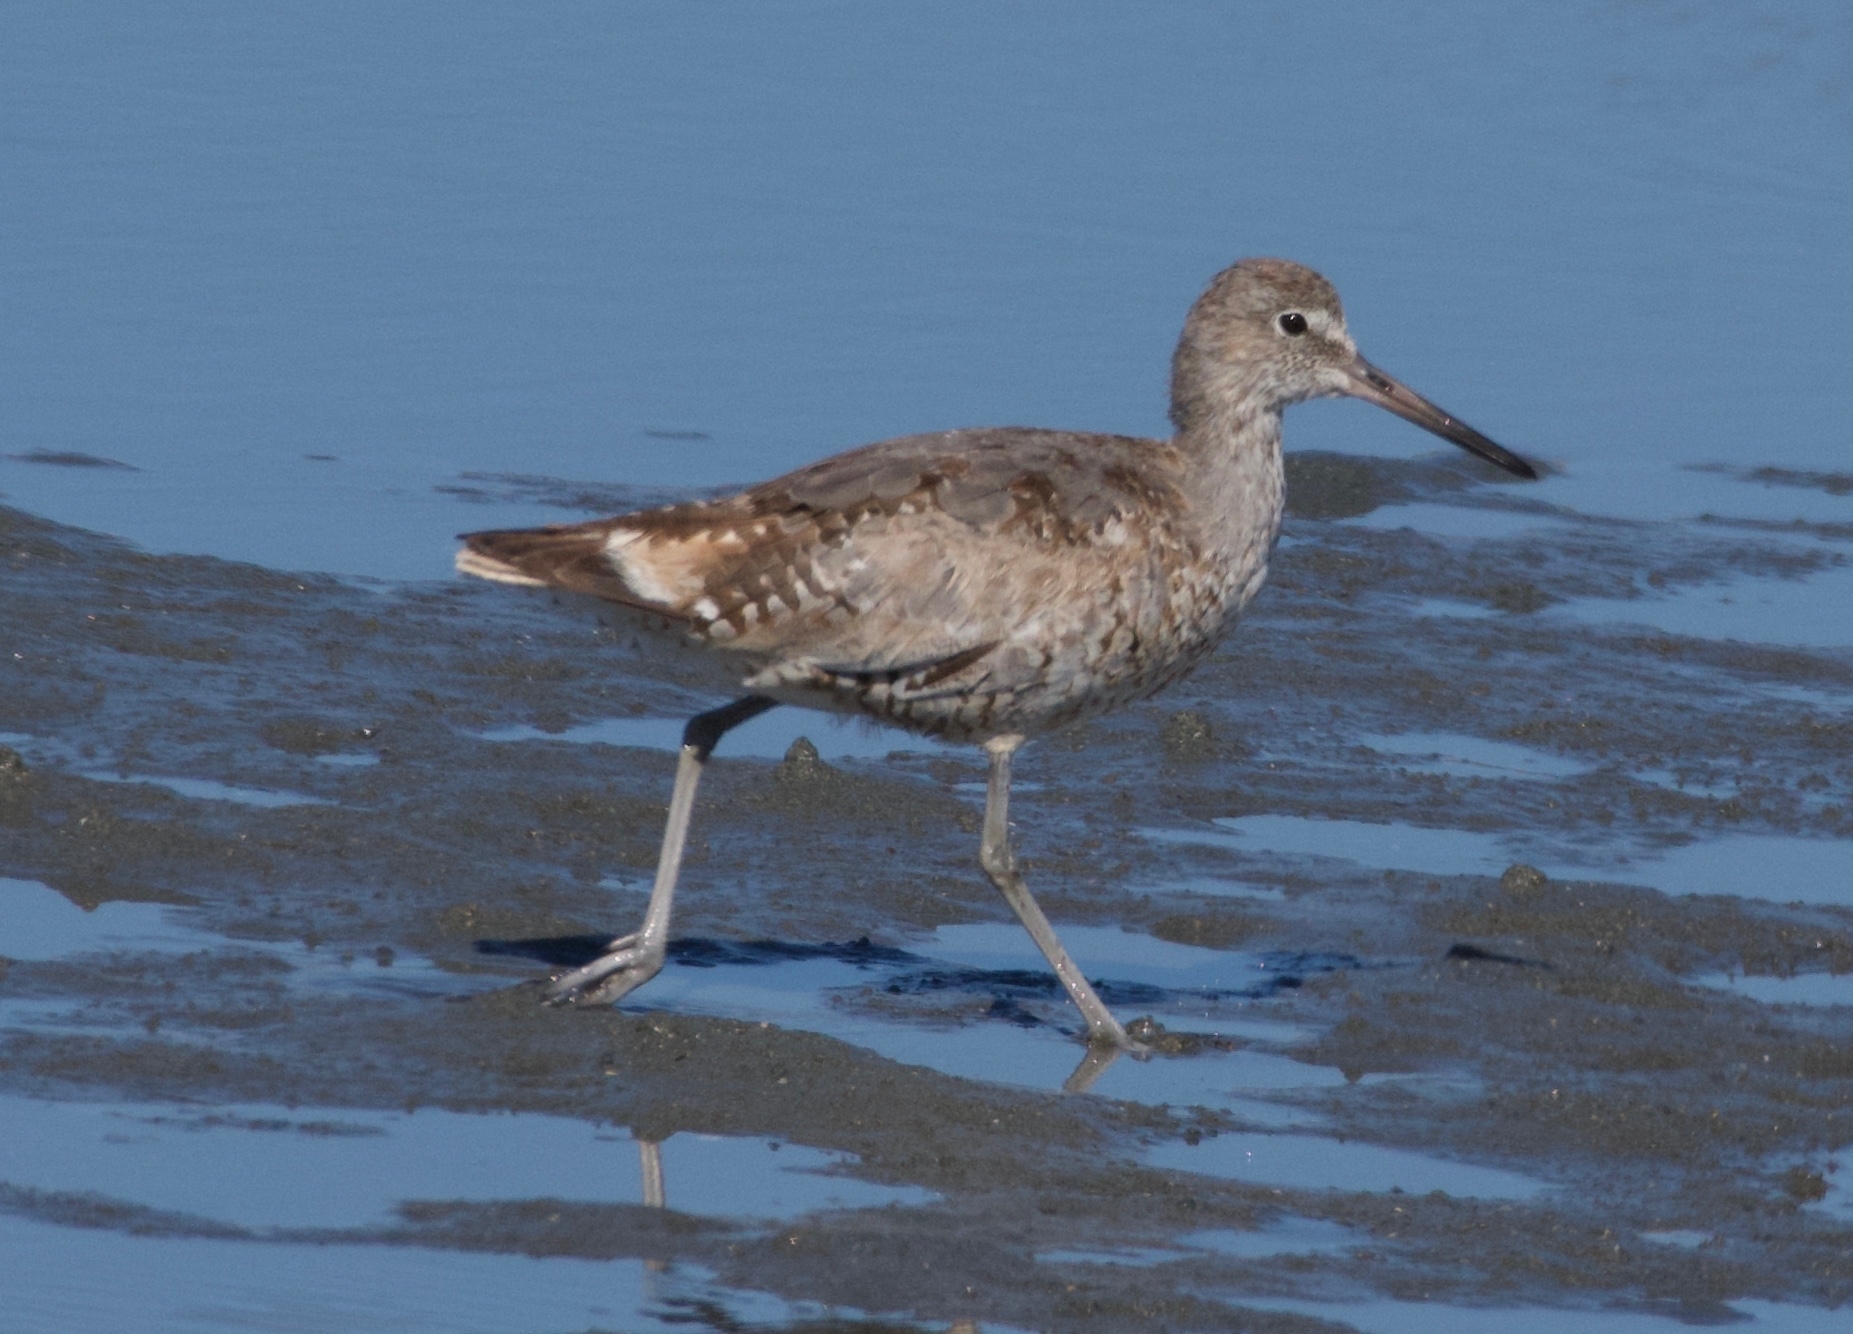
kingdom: Animalia
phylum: Chordata
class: Aves
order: Charadriiformes
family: Scolopacidae
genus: Tringa
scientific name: Tringa semipalmata
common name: Willet
